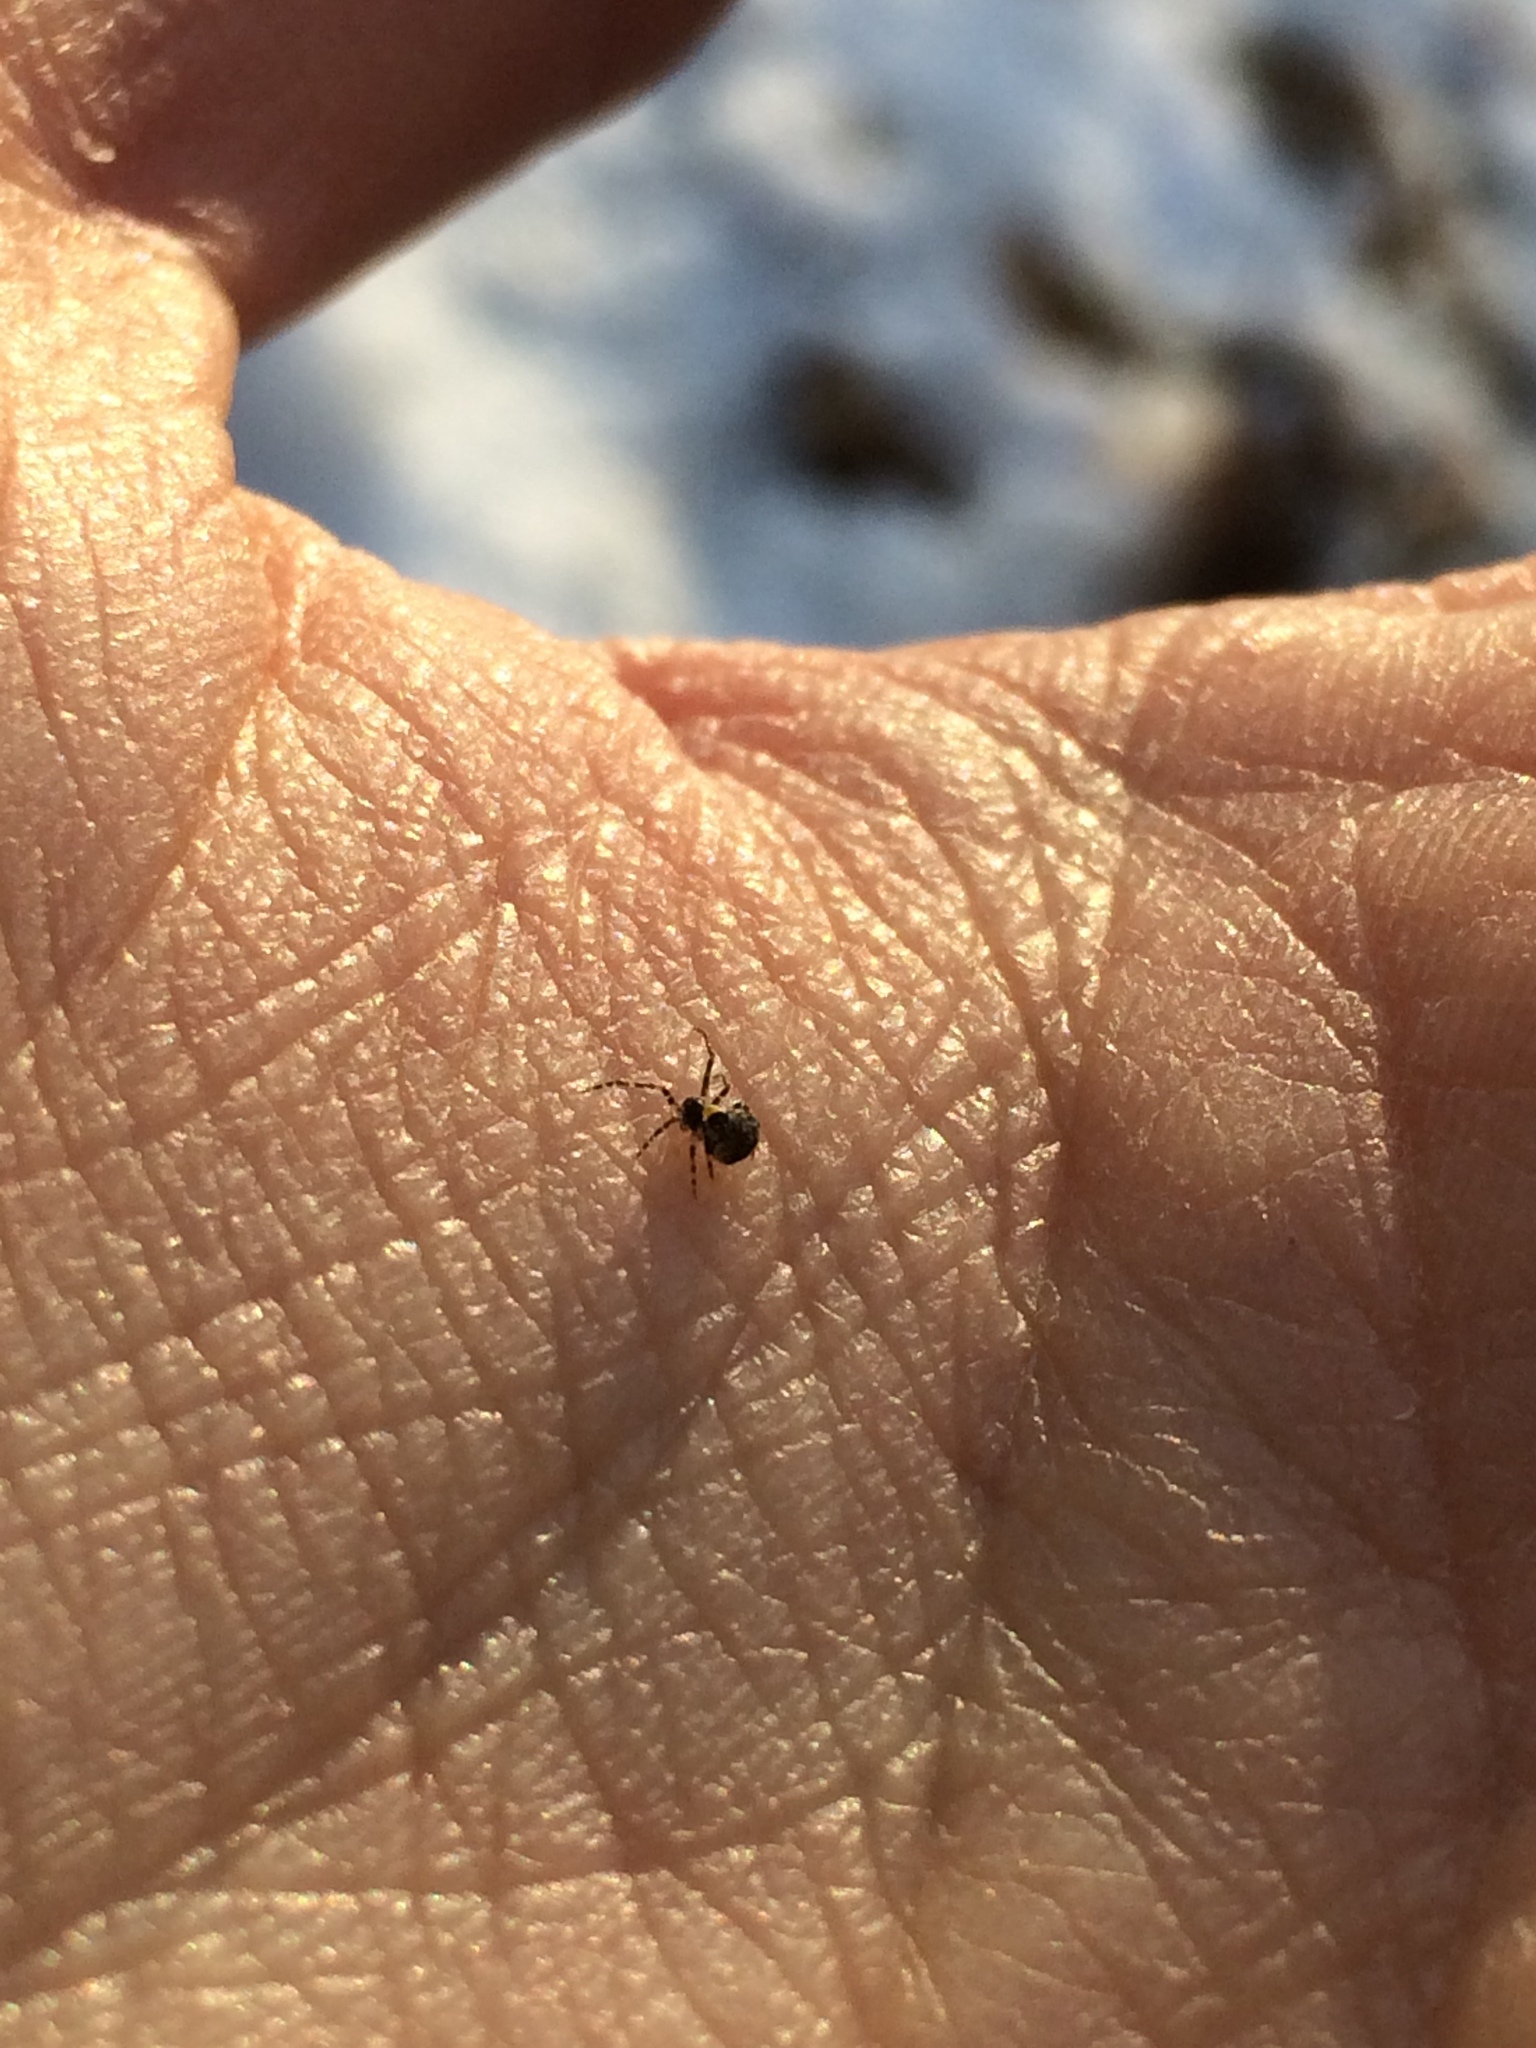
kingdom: Animalia
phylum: Arthropoda
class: Arachnida
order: Araneae
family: Theridiidae
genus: Yunohamella
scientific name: Yunohamella lyrica
